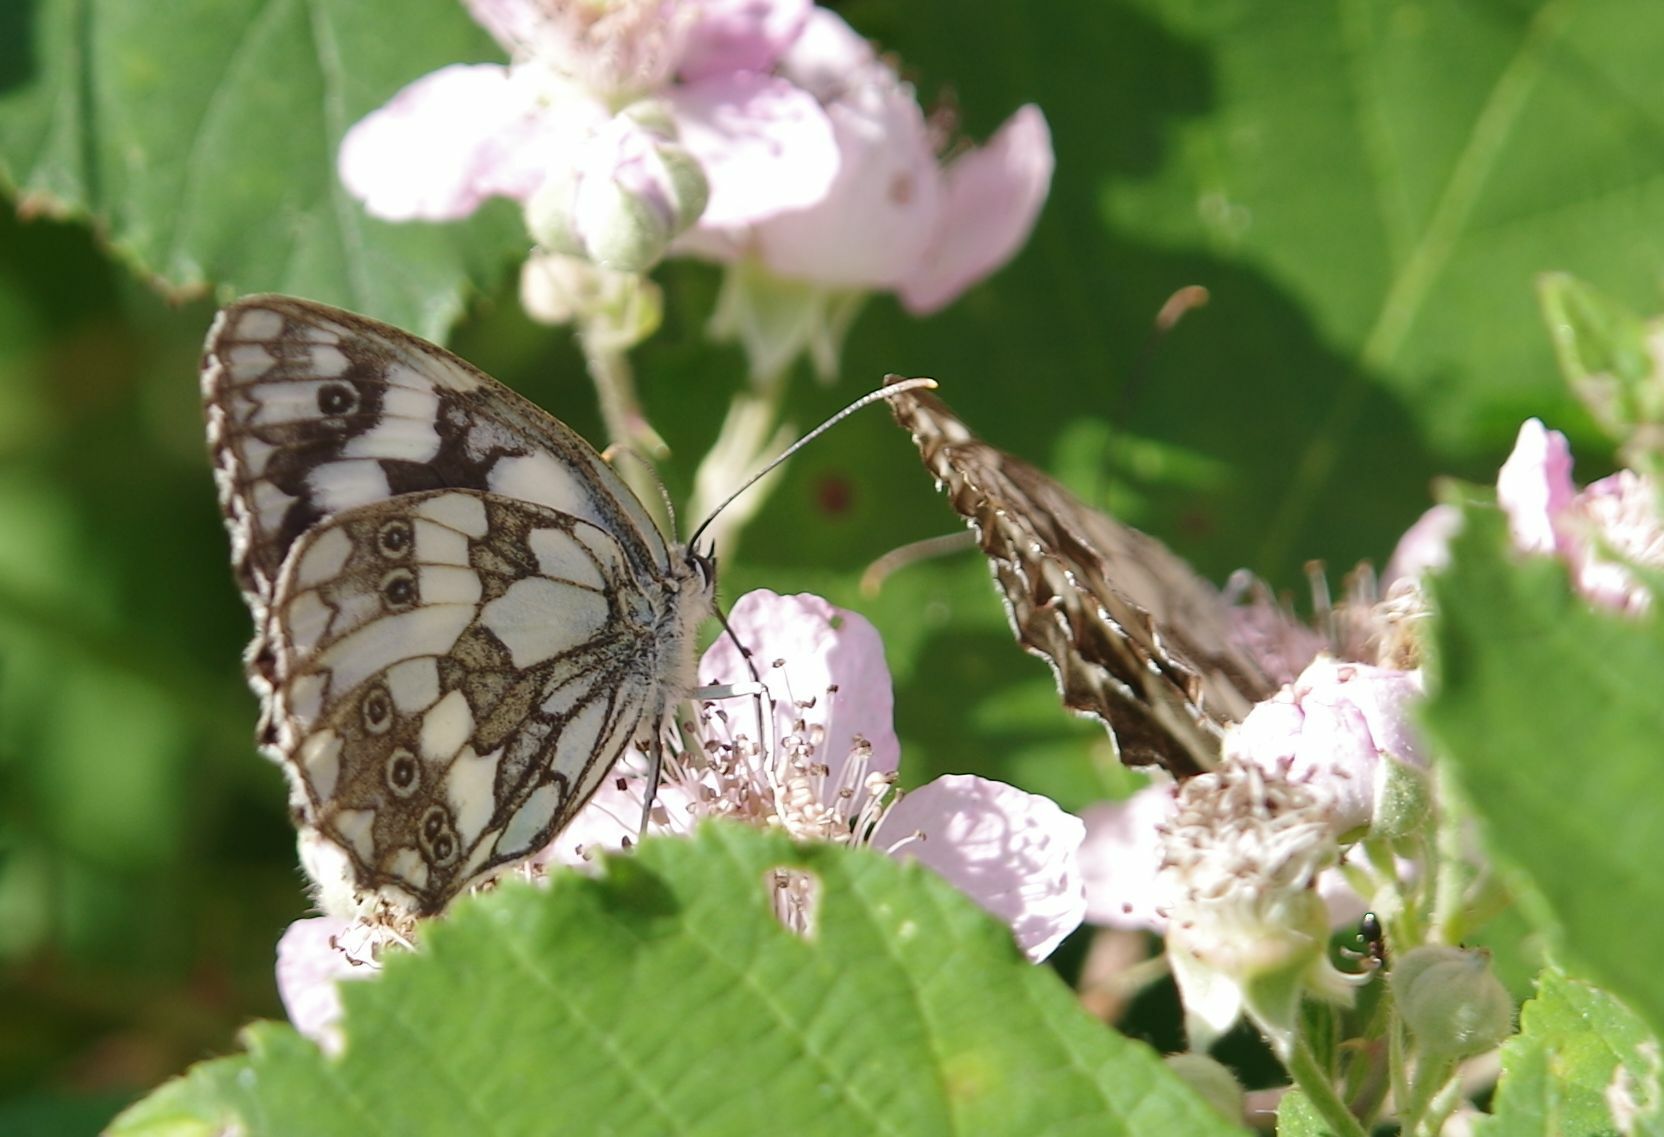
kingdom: Animalia
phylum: Arthropoda
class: Insecta
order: Lepidoptera
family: Nymphalidae
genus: Melanargia
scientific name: Melanargia galathea
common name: Marbled white
